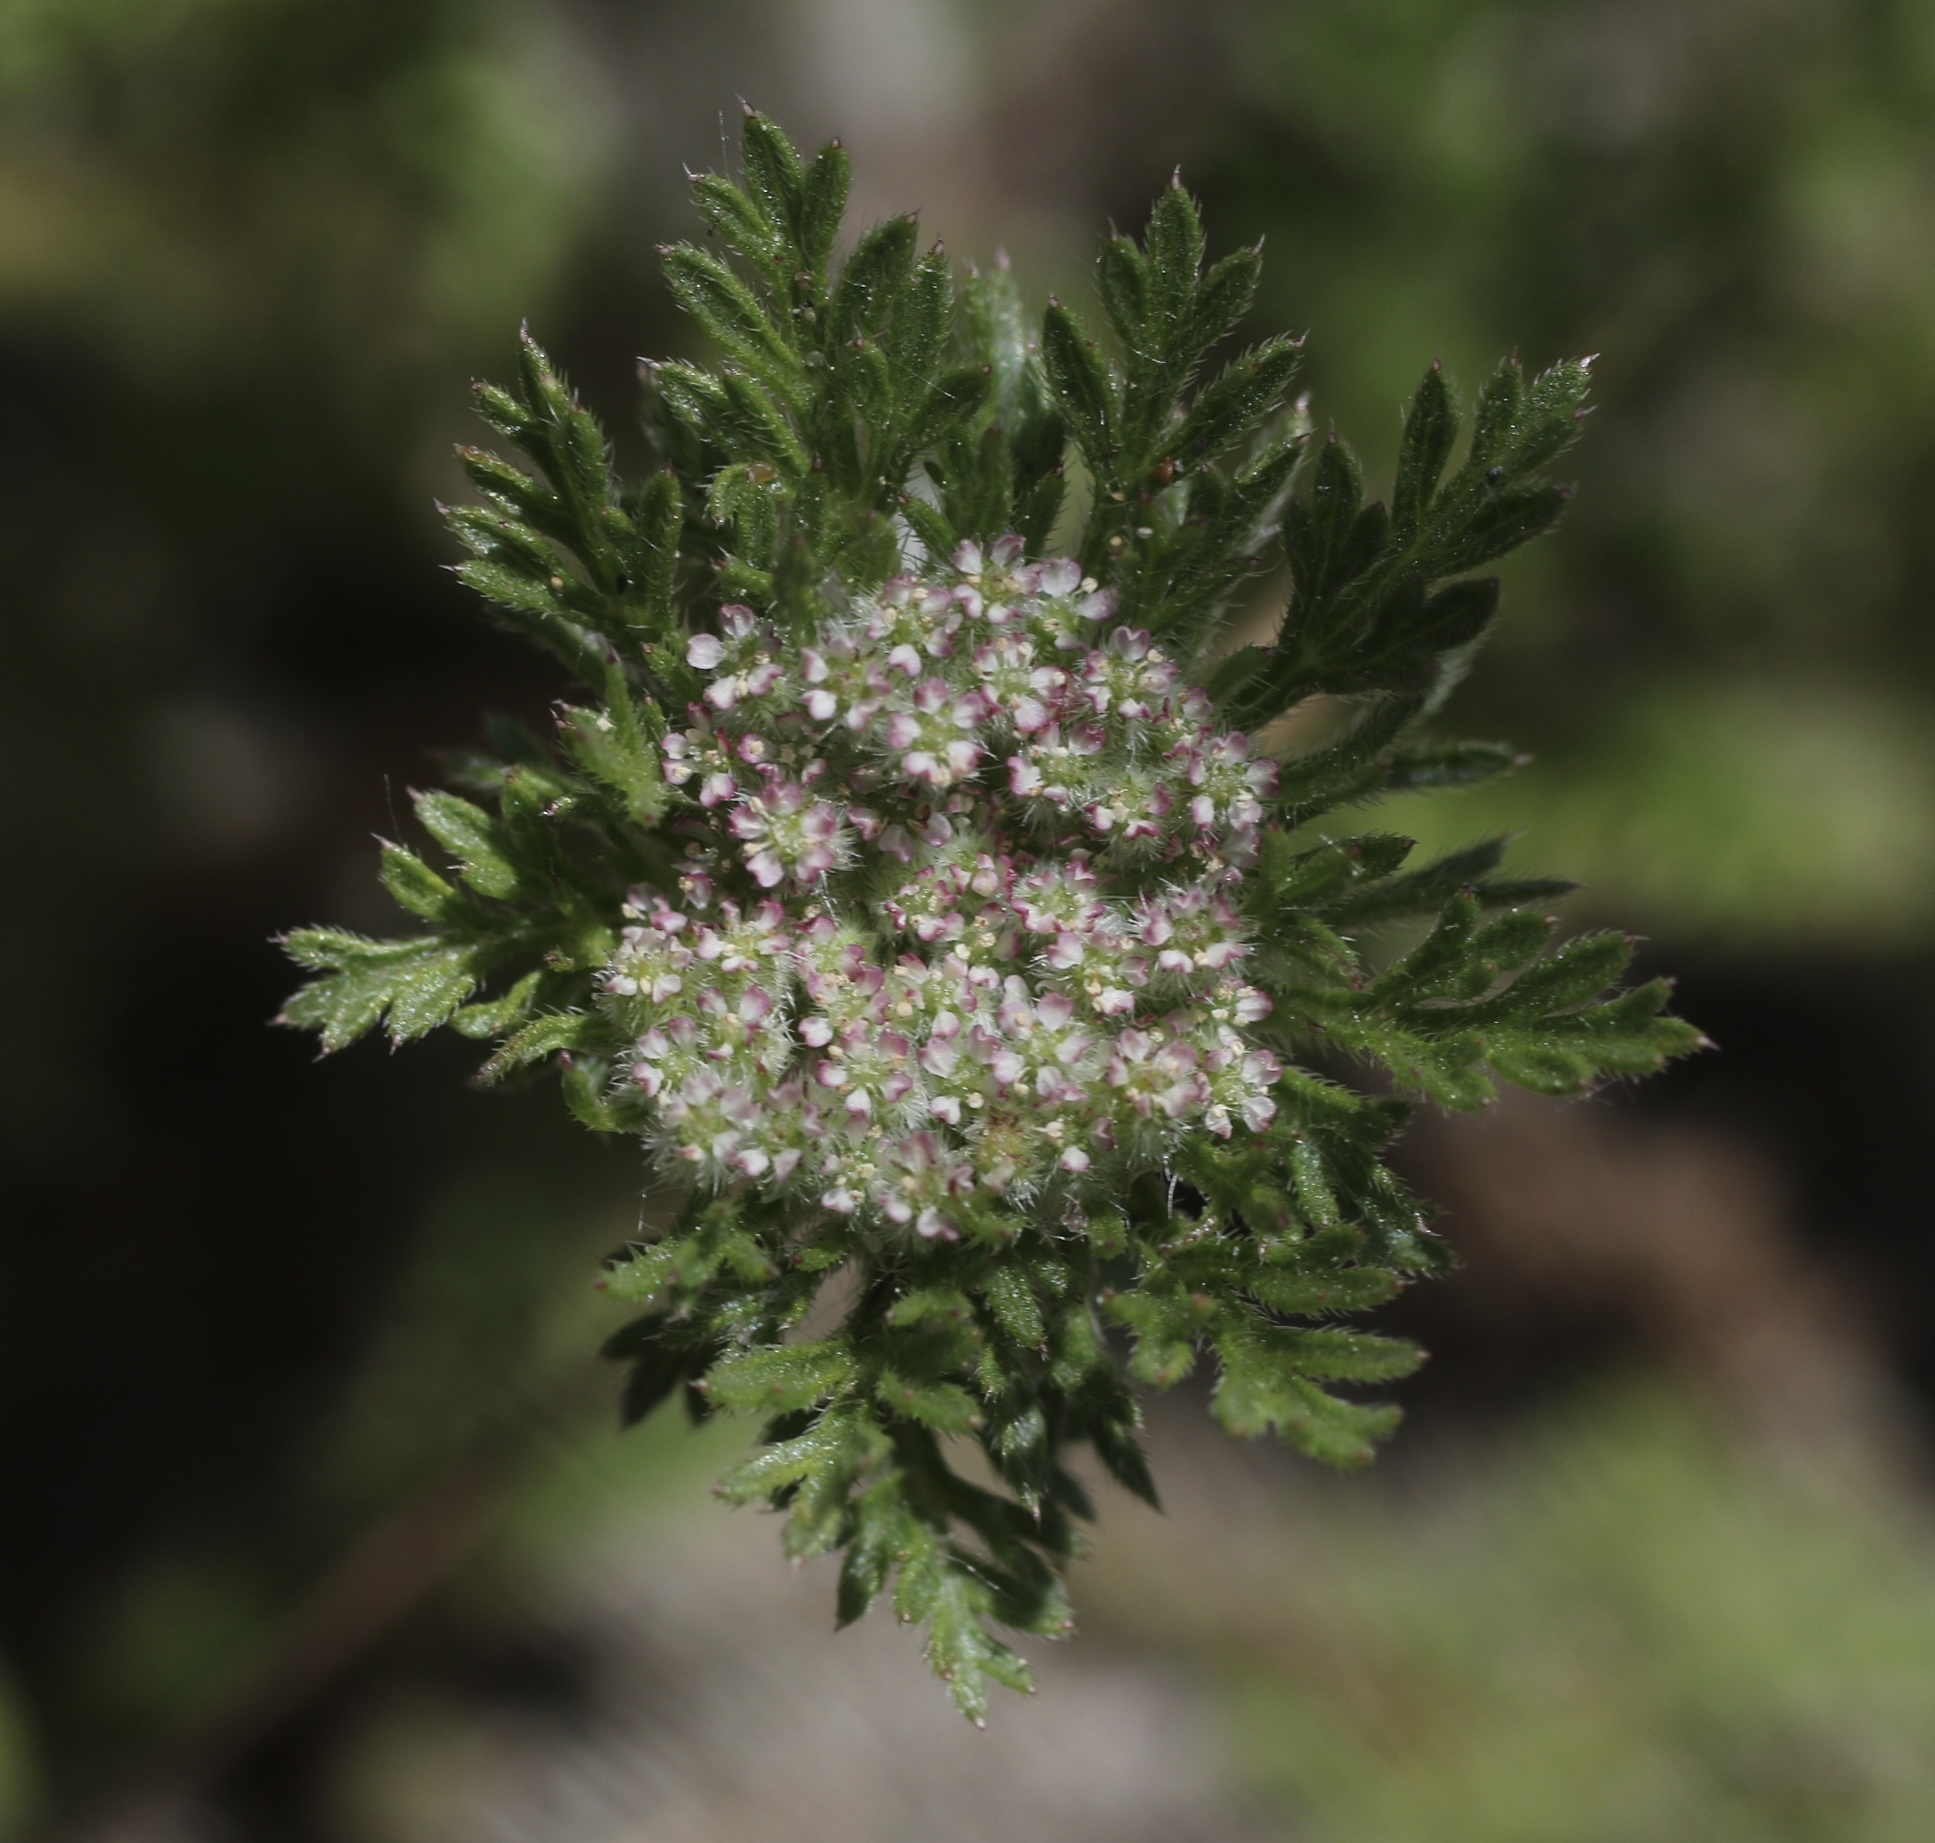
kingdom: Plantae
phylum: Tracheophyta
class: Magnoliopsida
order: Apiales
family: Apiaceae
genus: Daucus
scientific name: Daucus pusillus
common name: Southwest wild carrot
